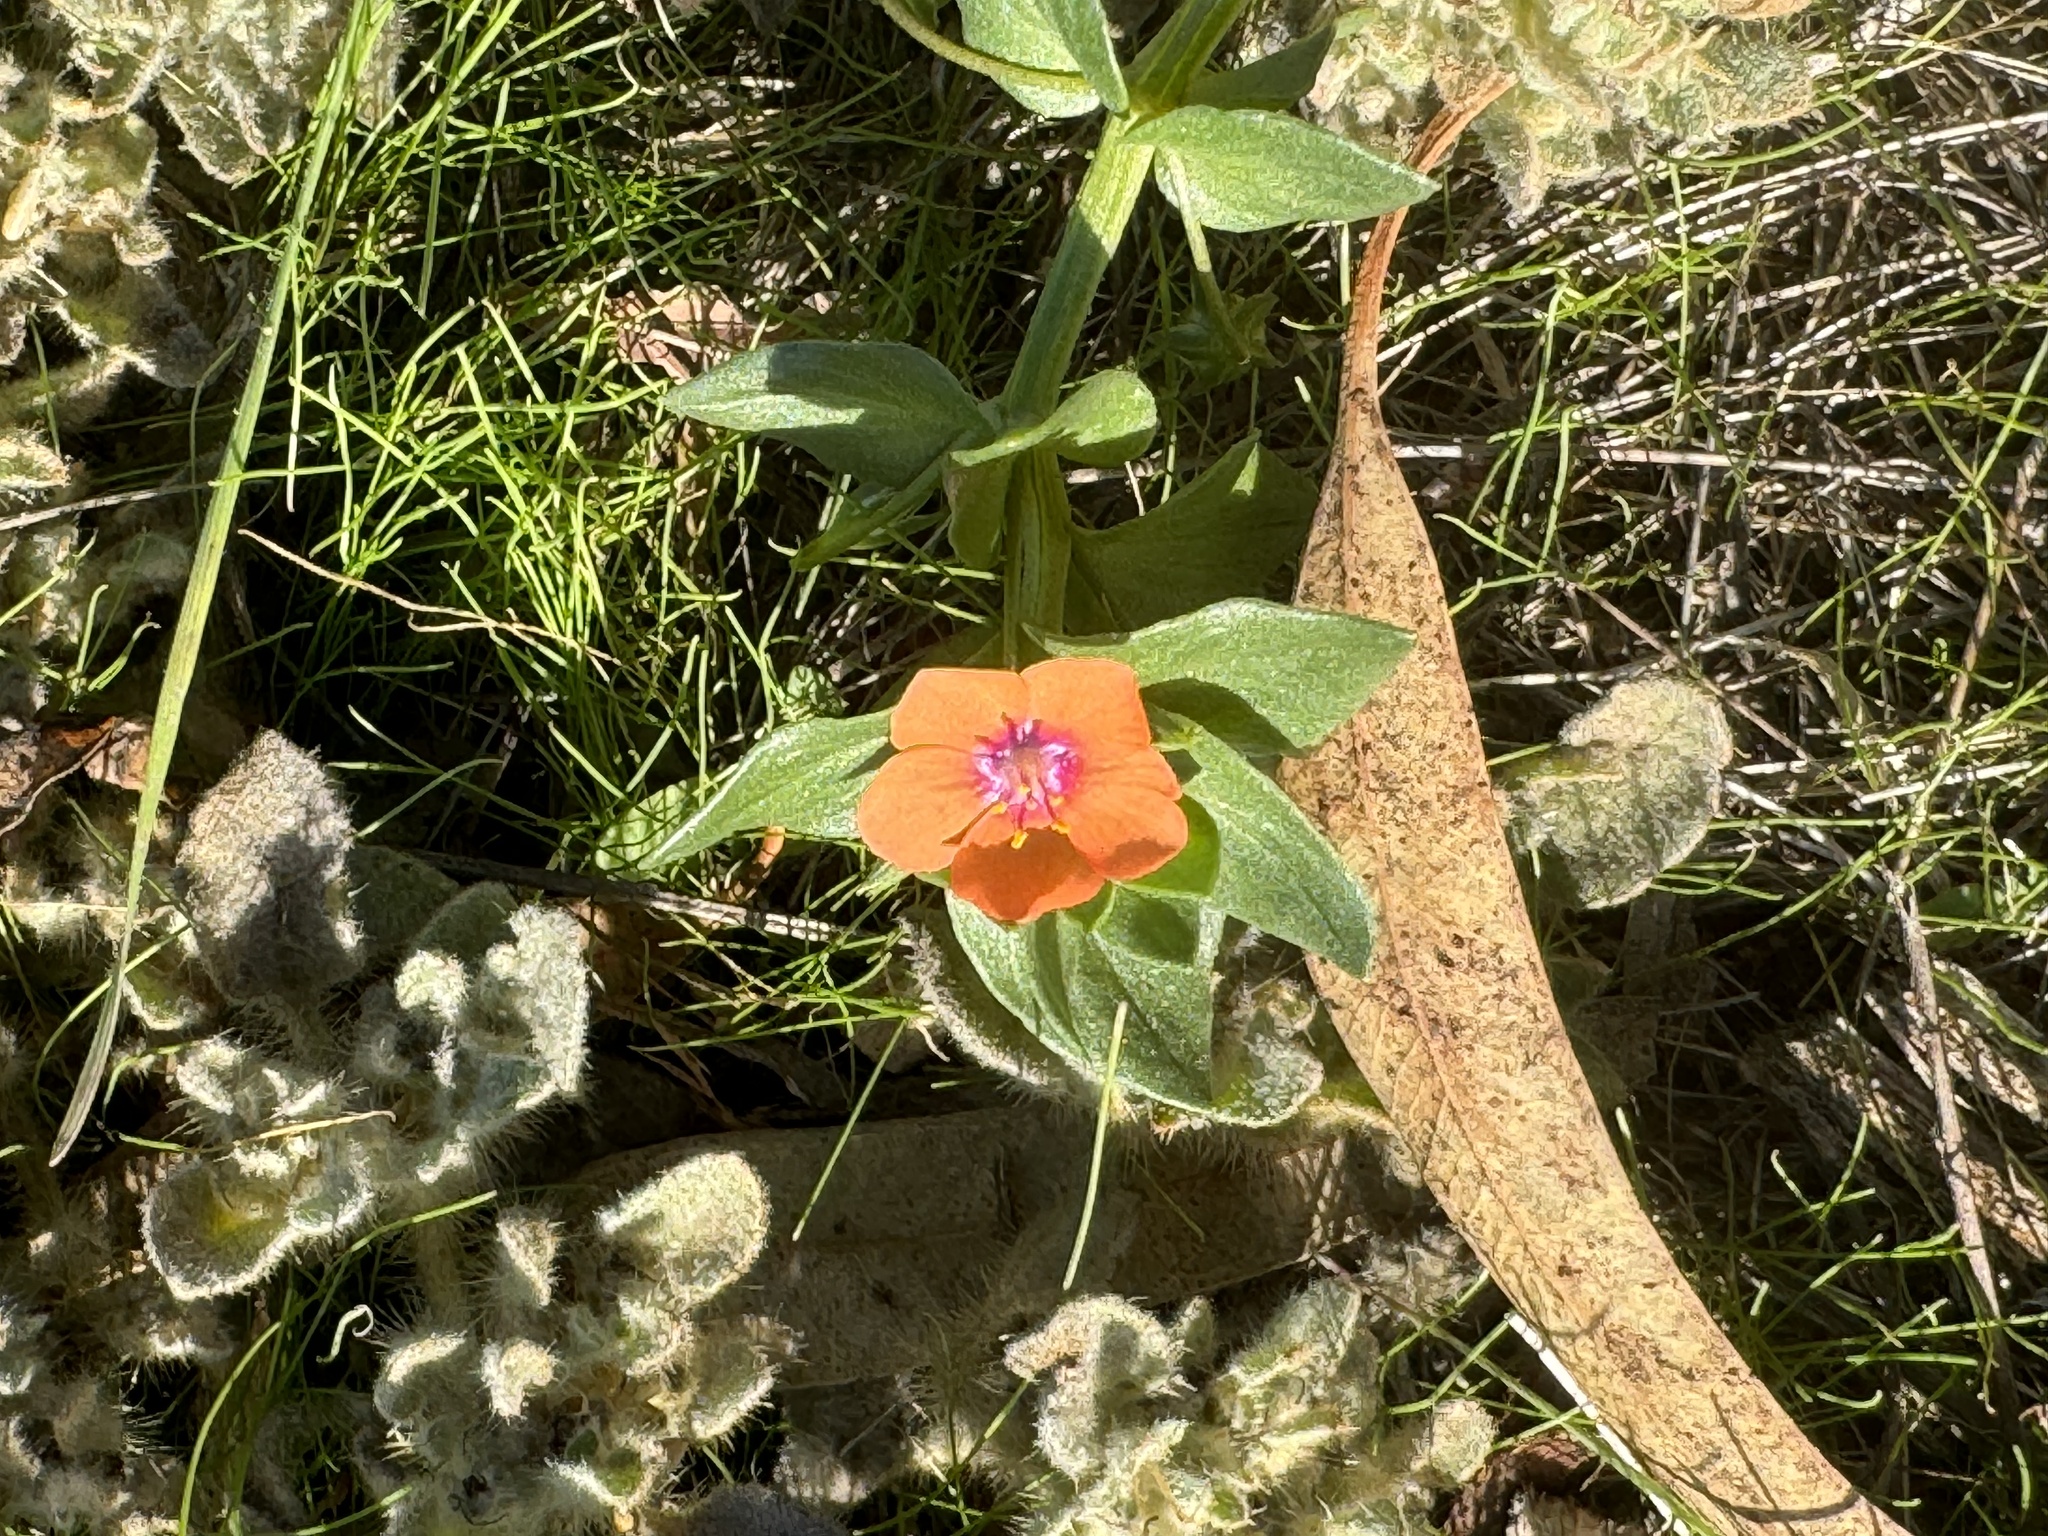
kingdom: Plantae
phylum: Tracheophyta
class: Magnoliopsida
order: Ericales
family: Primulaceae
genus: Lysimachia
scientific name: Lysimachia arvensis
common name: Scarlet pimpernel
